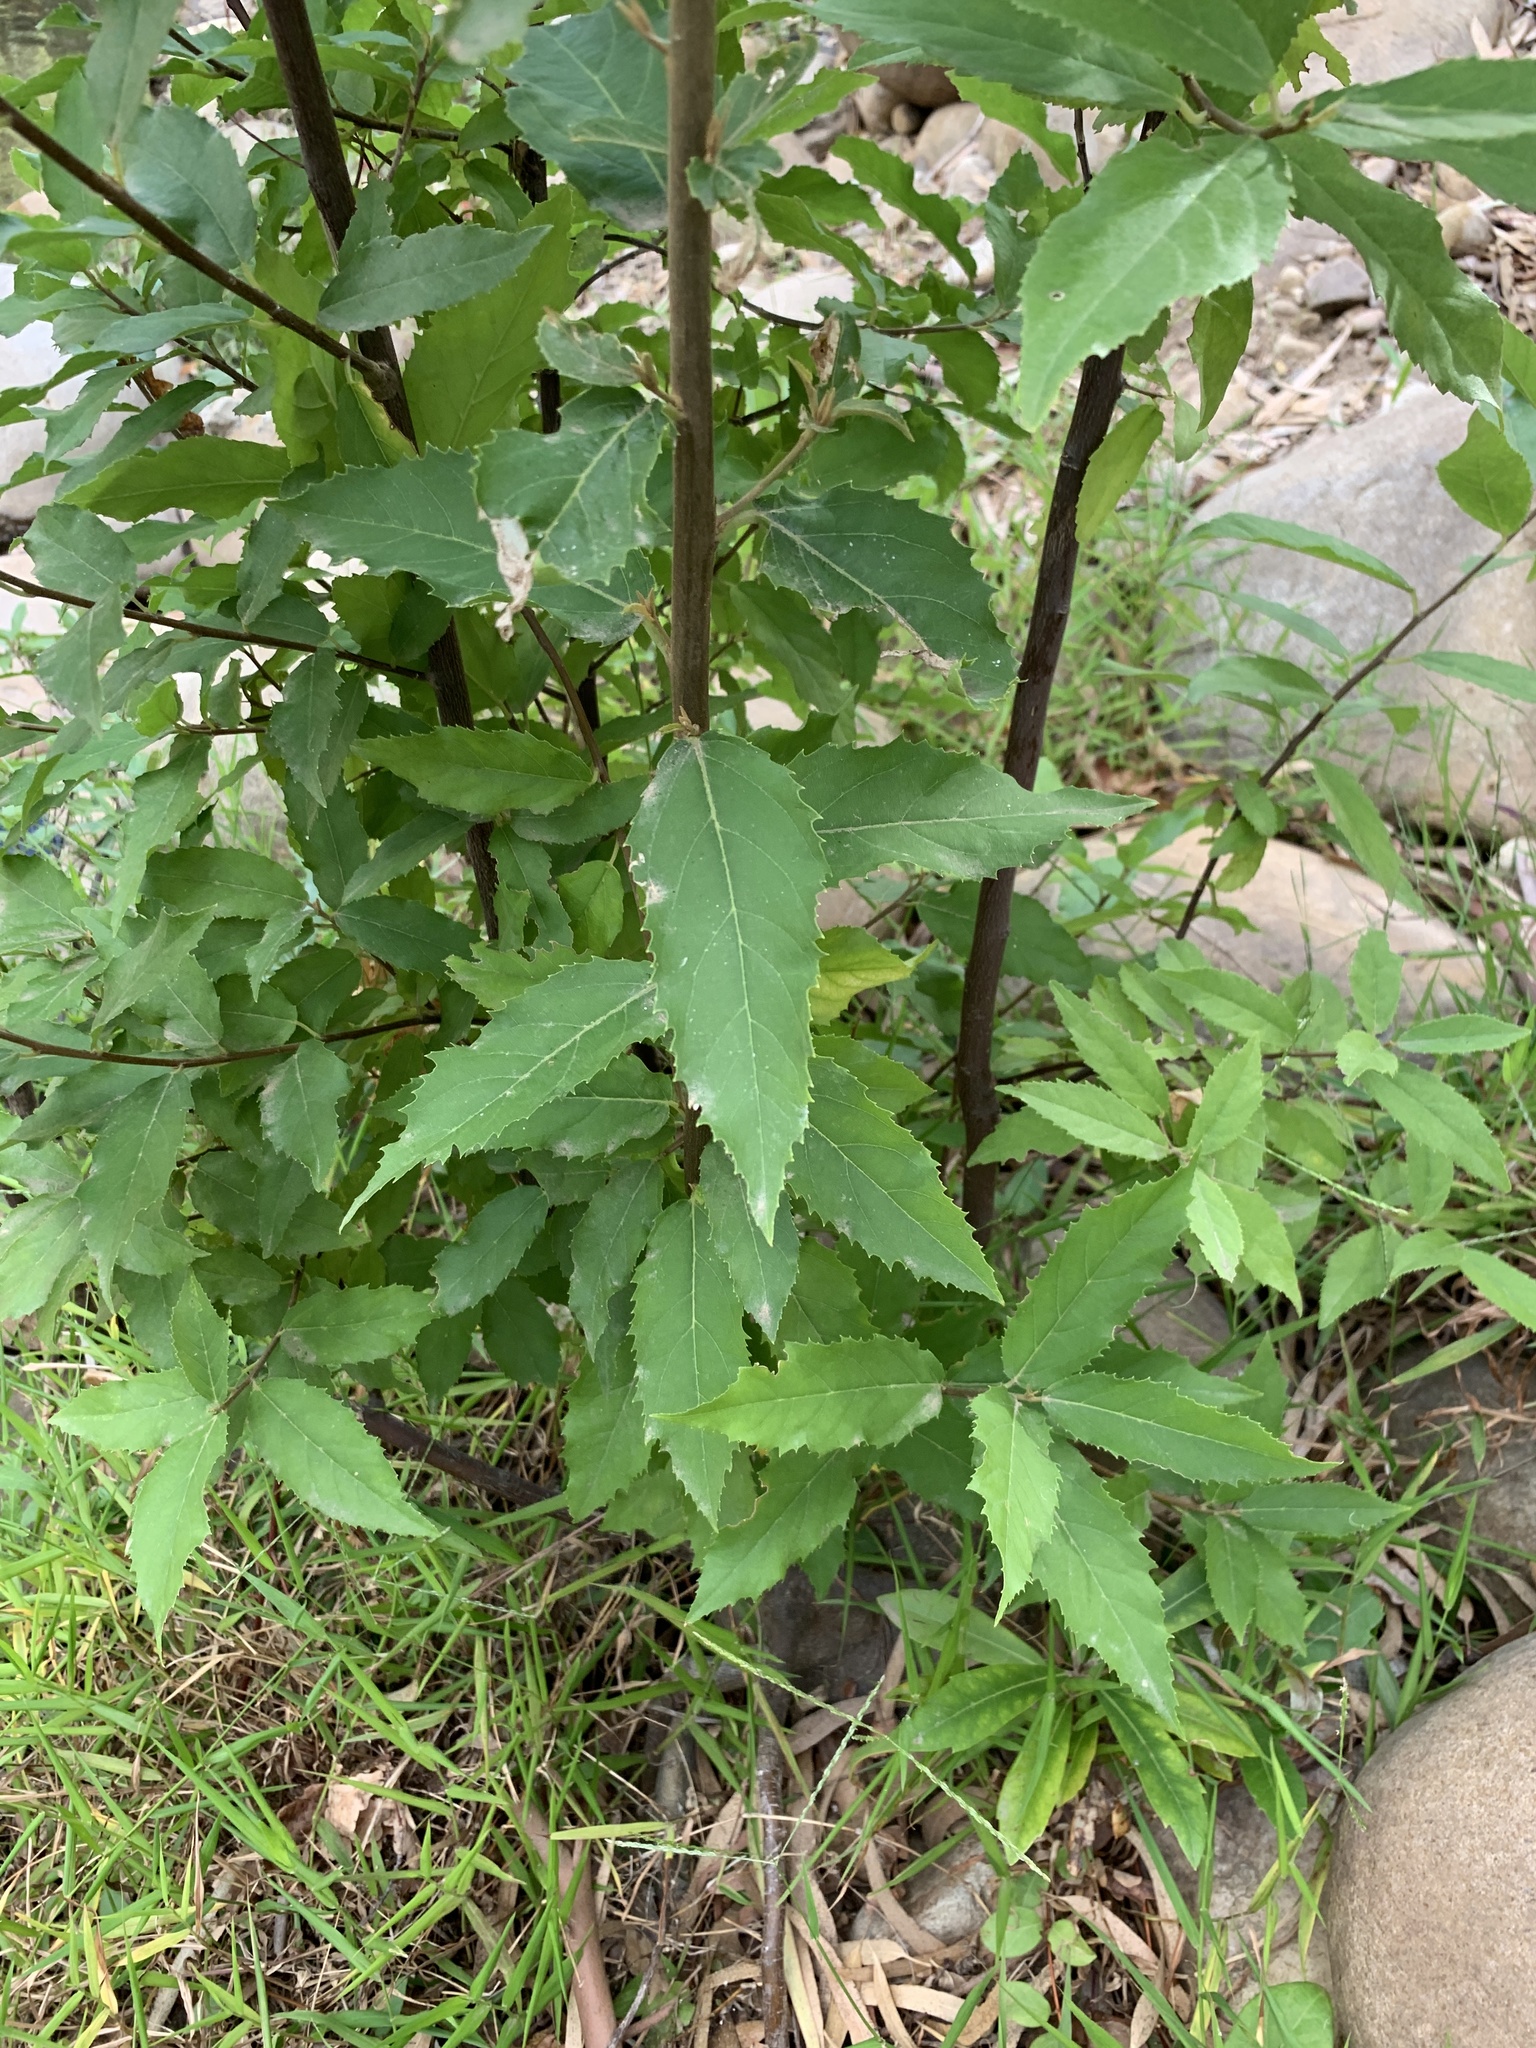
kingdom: Plantae
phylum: Tracheophyta
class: Magnoliopsida
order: Malpighiales
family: Achariaceae
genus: Kiggelaria
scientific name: Kiggelaria africana
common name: Wild peach
